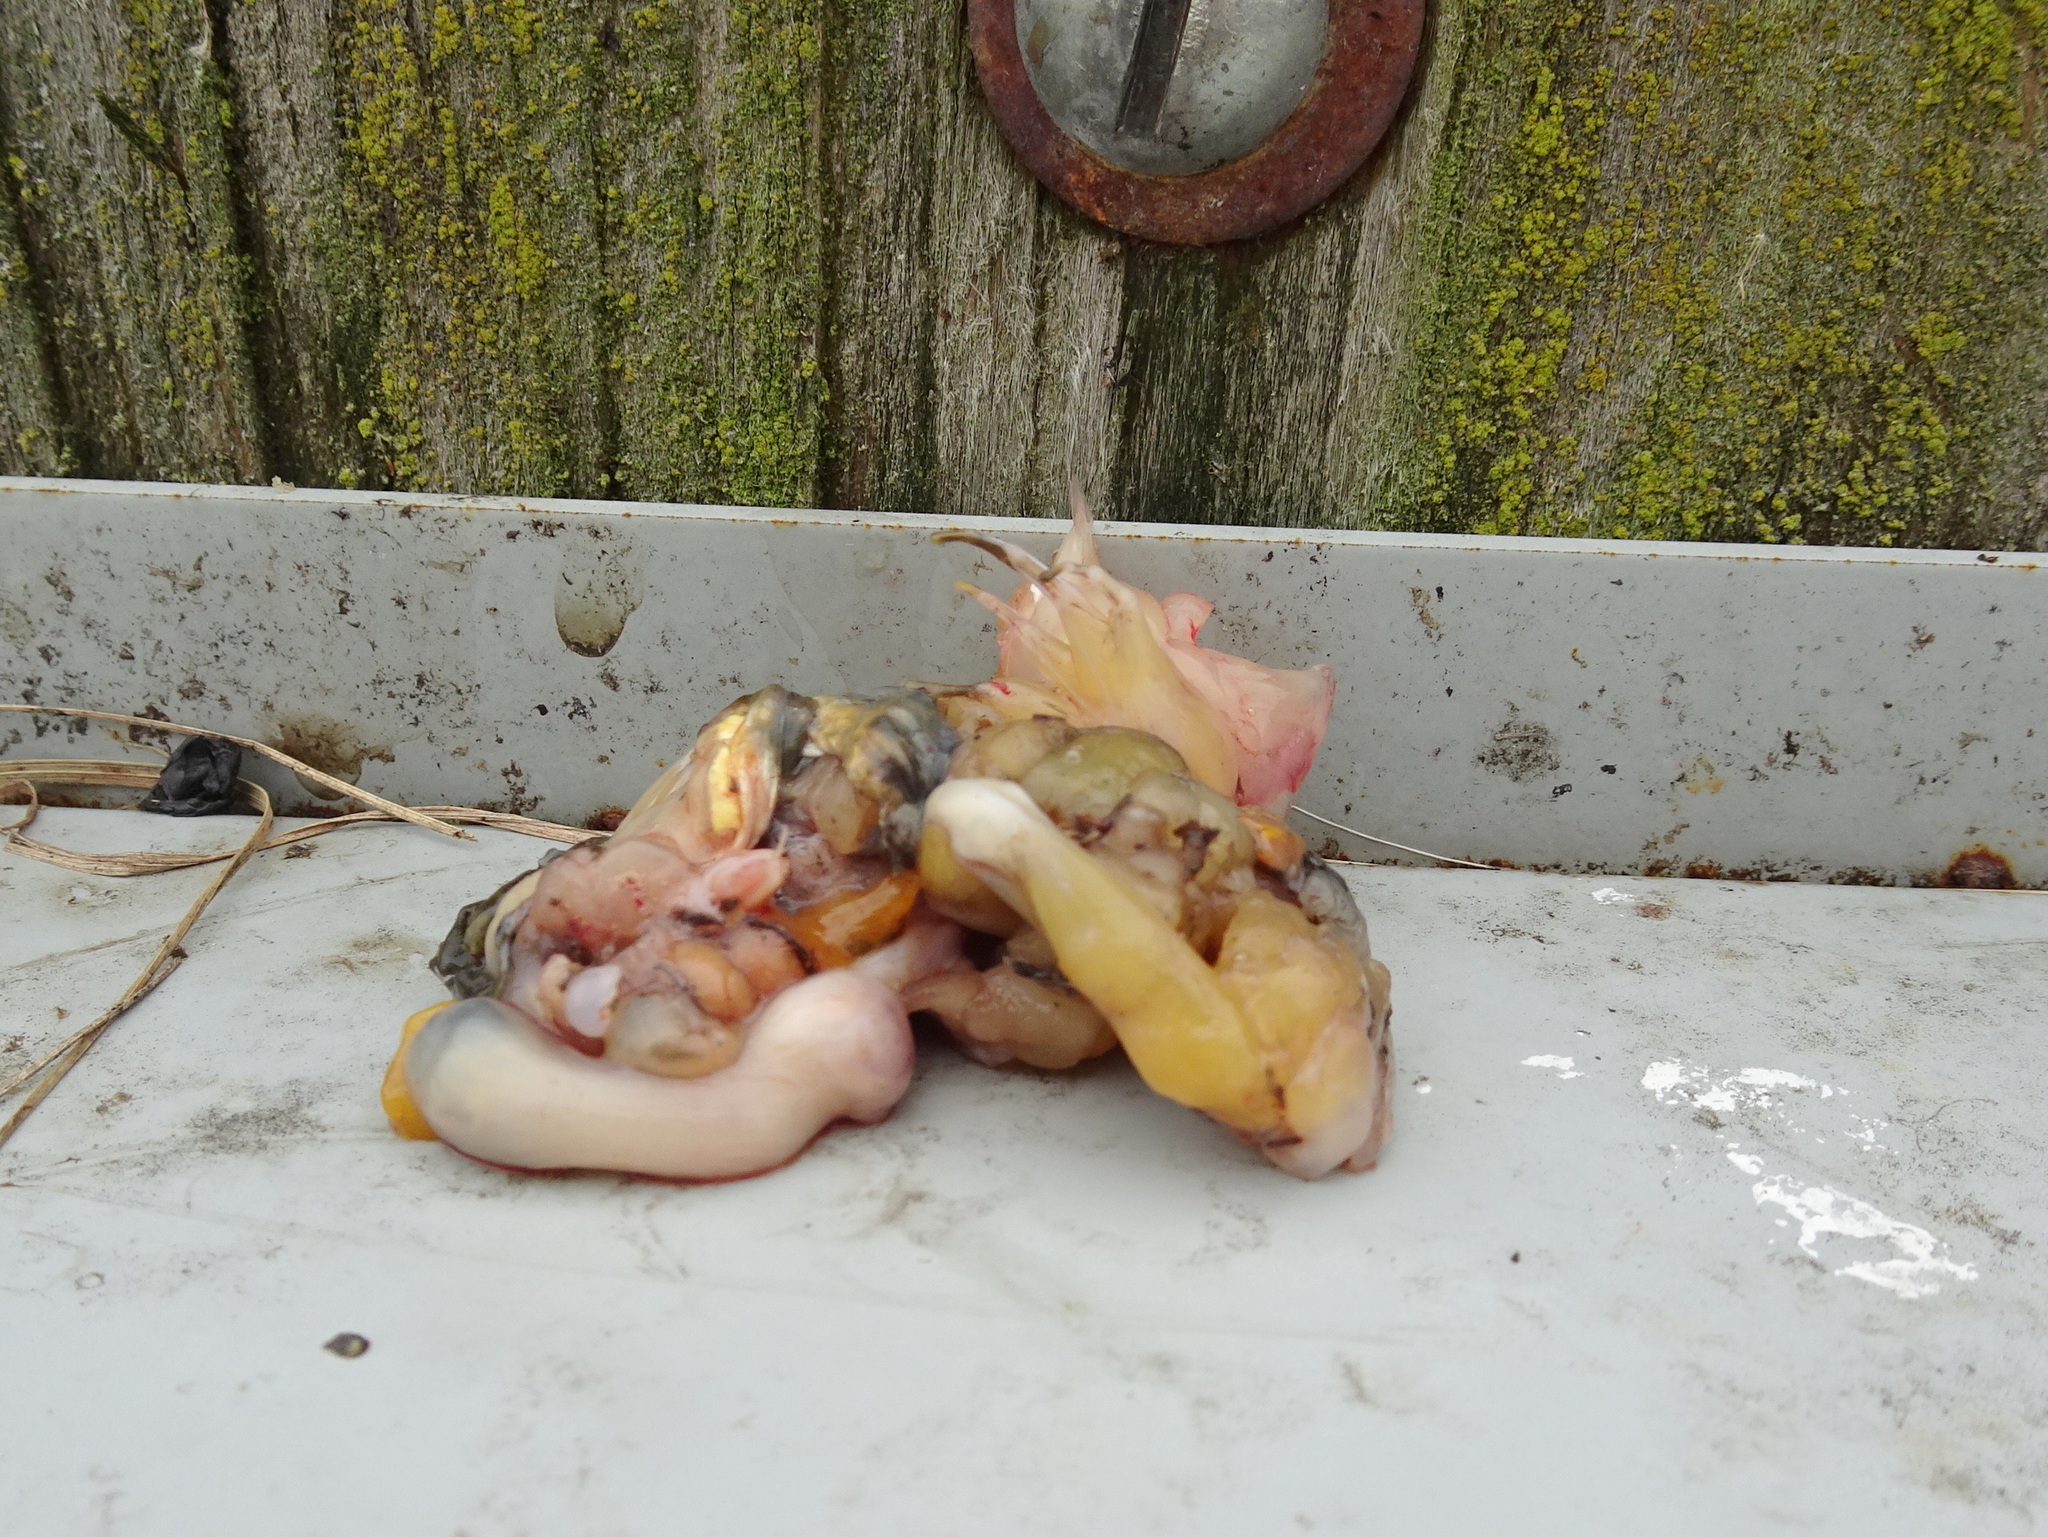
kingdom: Animalia
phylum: Chordata
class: Amphibia
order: Anura
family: Ranidae
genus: Lithobates
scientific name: Lithobates
